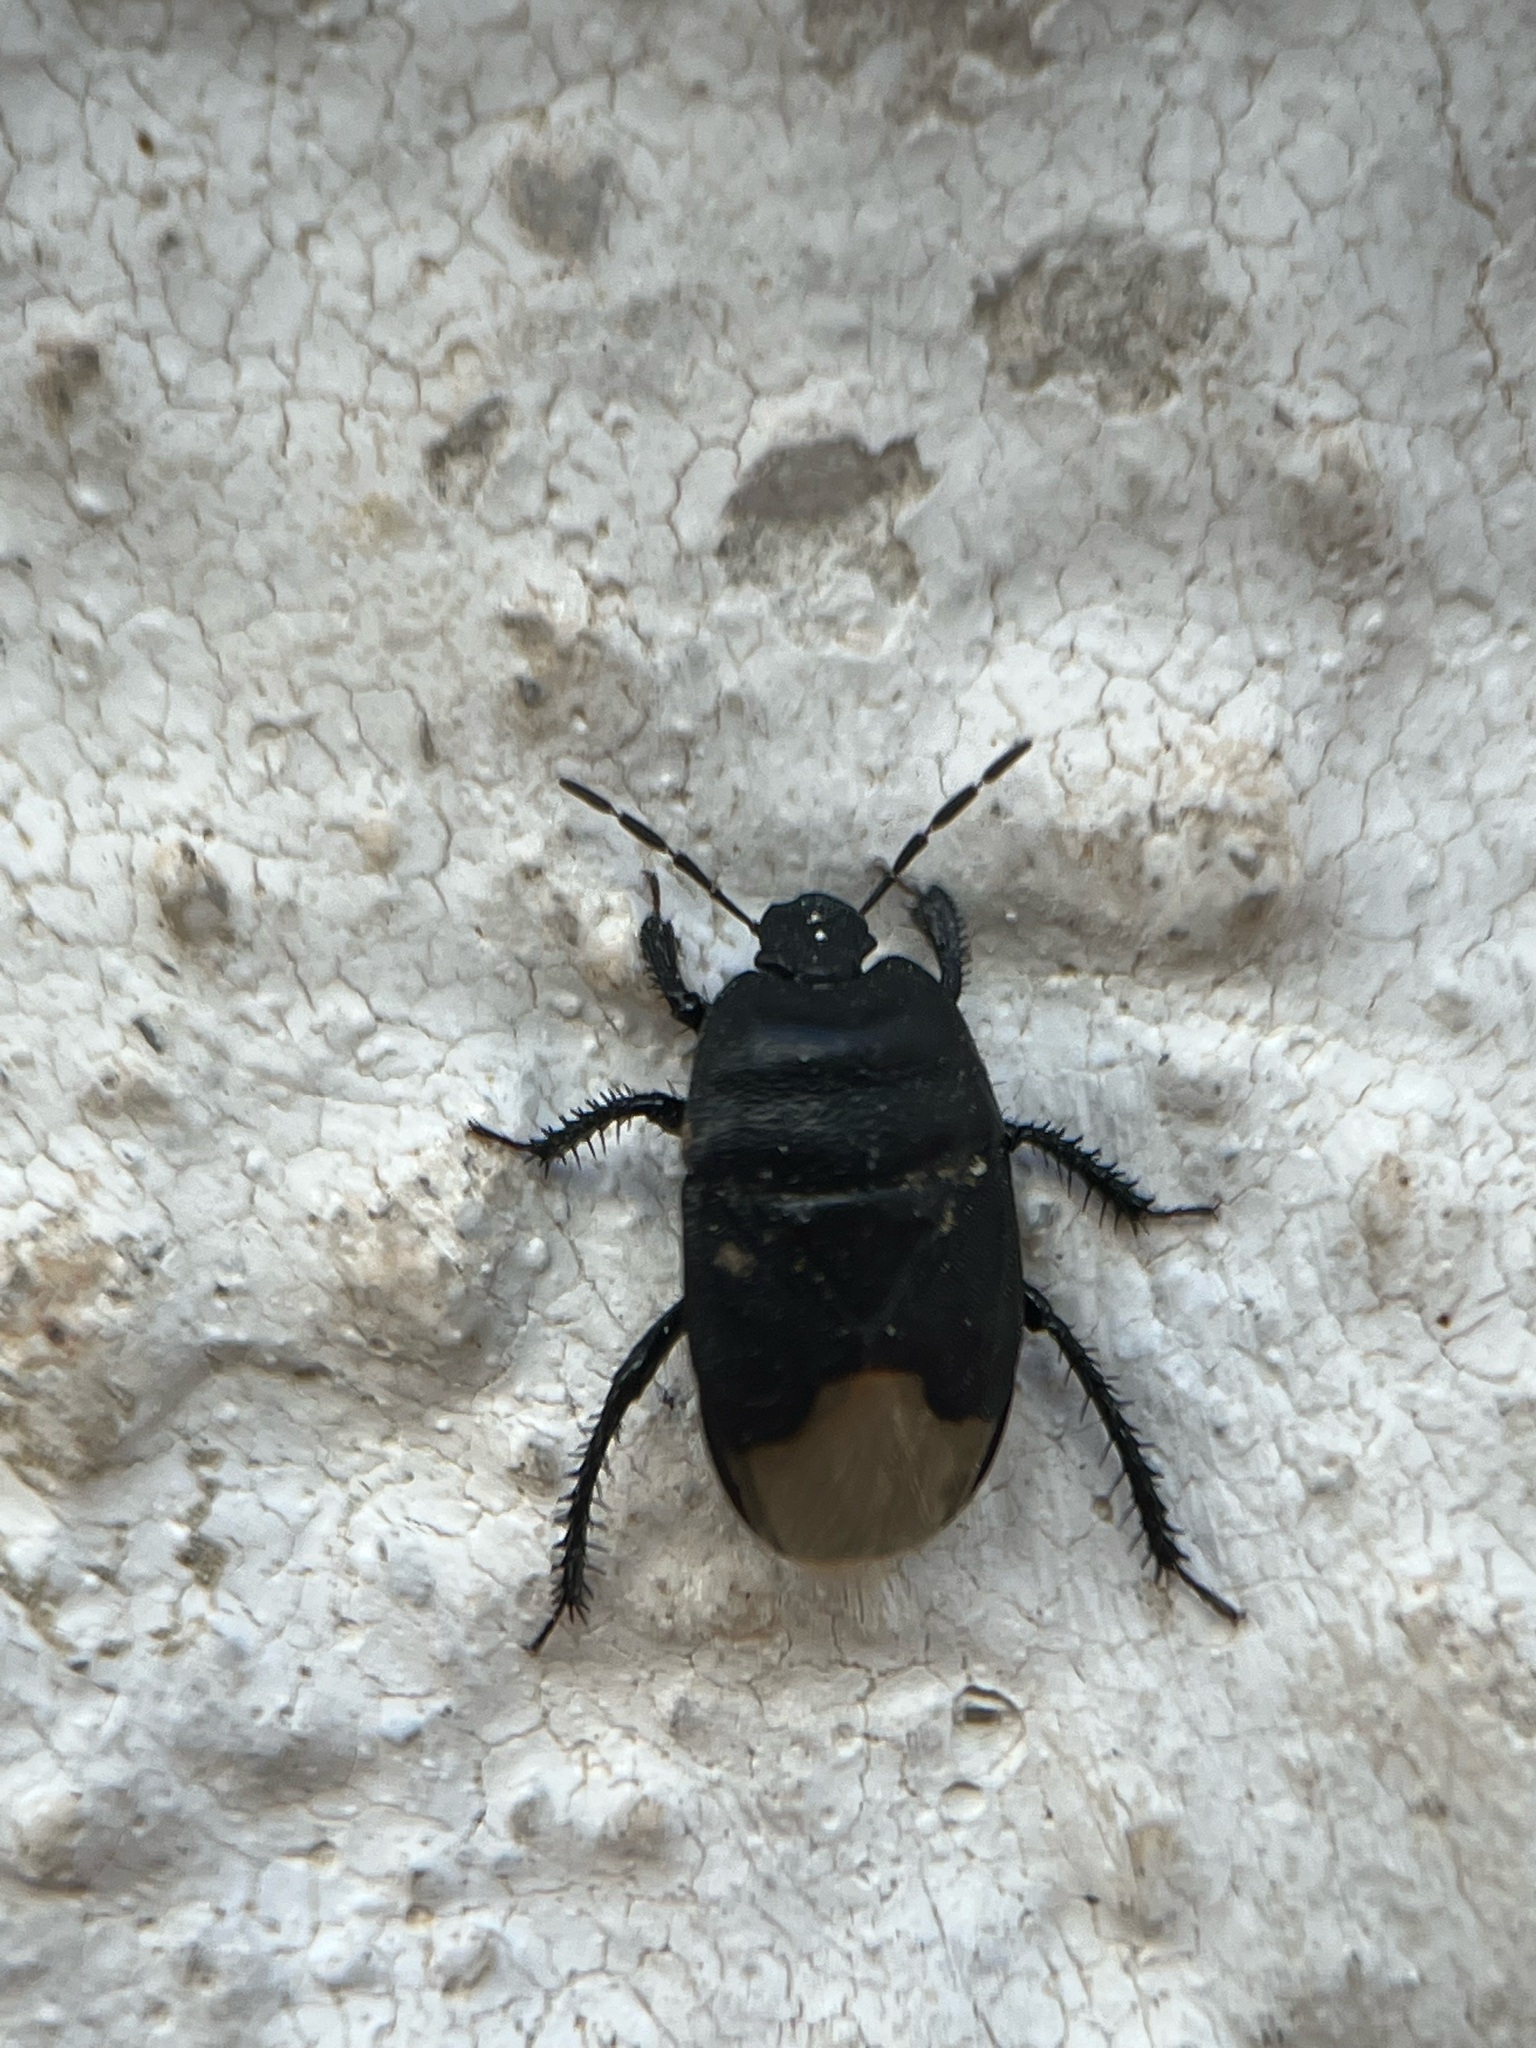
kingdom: Animalia
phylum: Arthropoda
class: Insecta
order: Hemiptera
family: Cydnidae
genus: Cydnus
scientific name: Cydnus aterrimus
